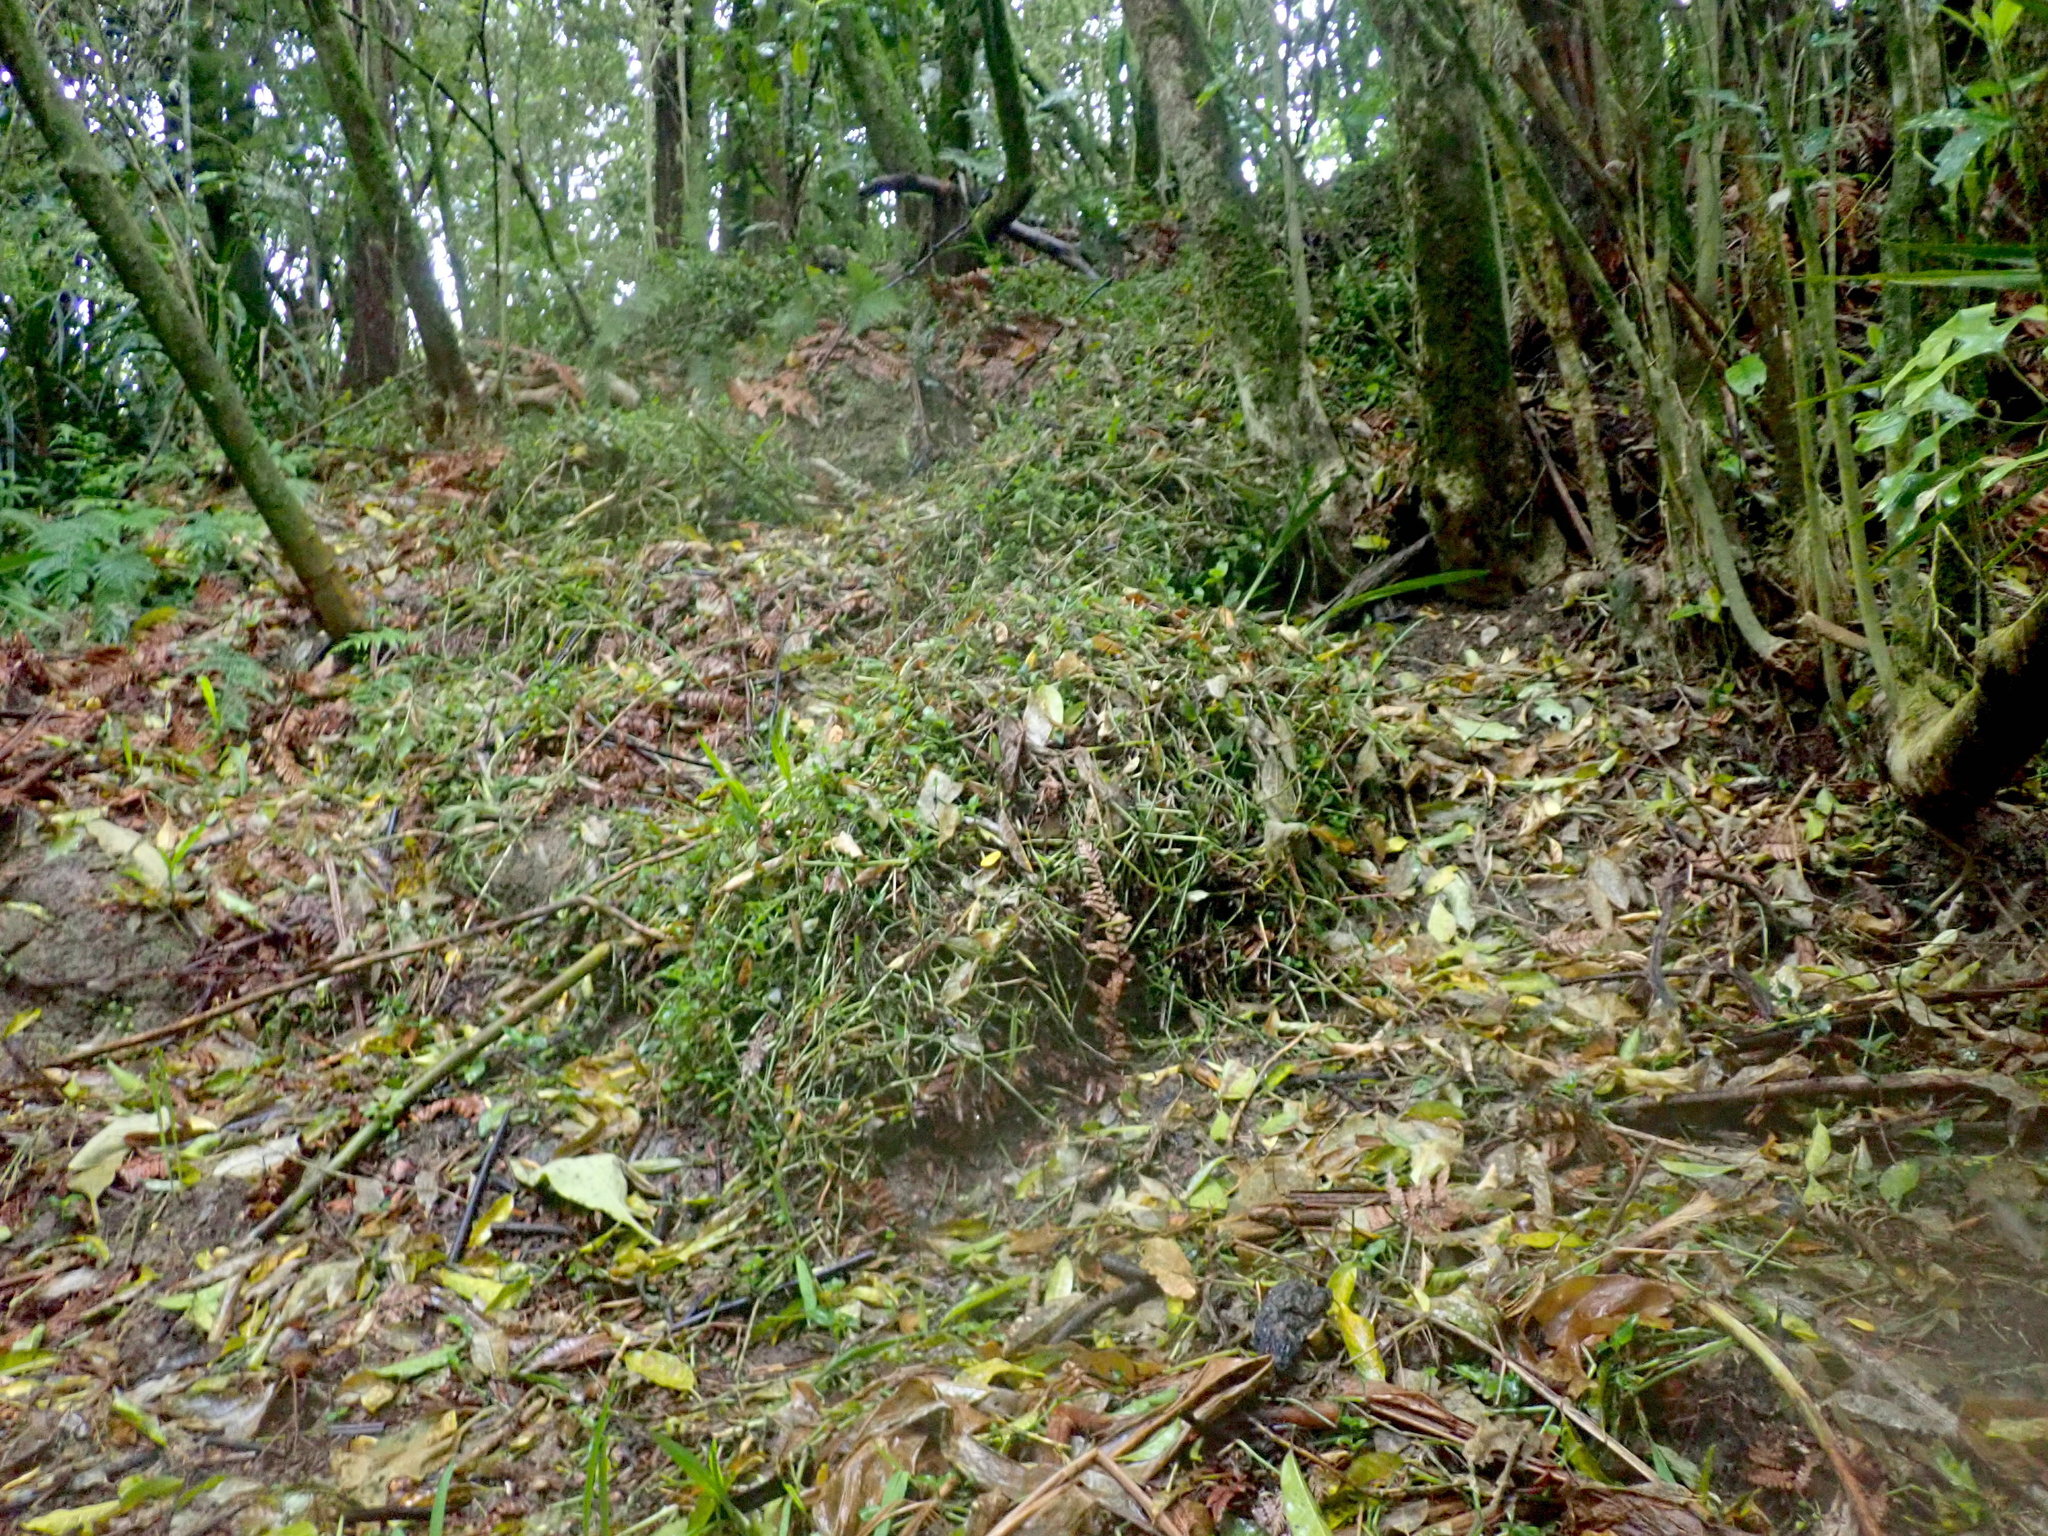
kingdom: Plantae
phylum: Tracheophyta
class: Liliopsida
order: Commelinales
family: Commelinaceae
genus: Tradescantia
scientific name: Tradescantia fluminensis
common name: Wandering-jew
